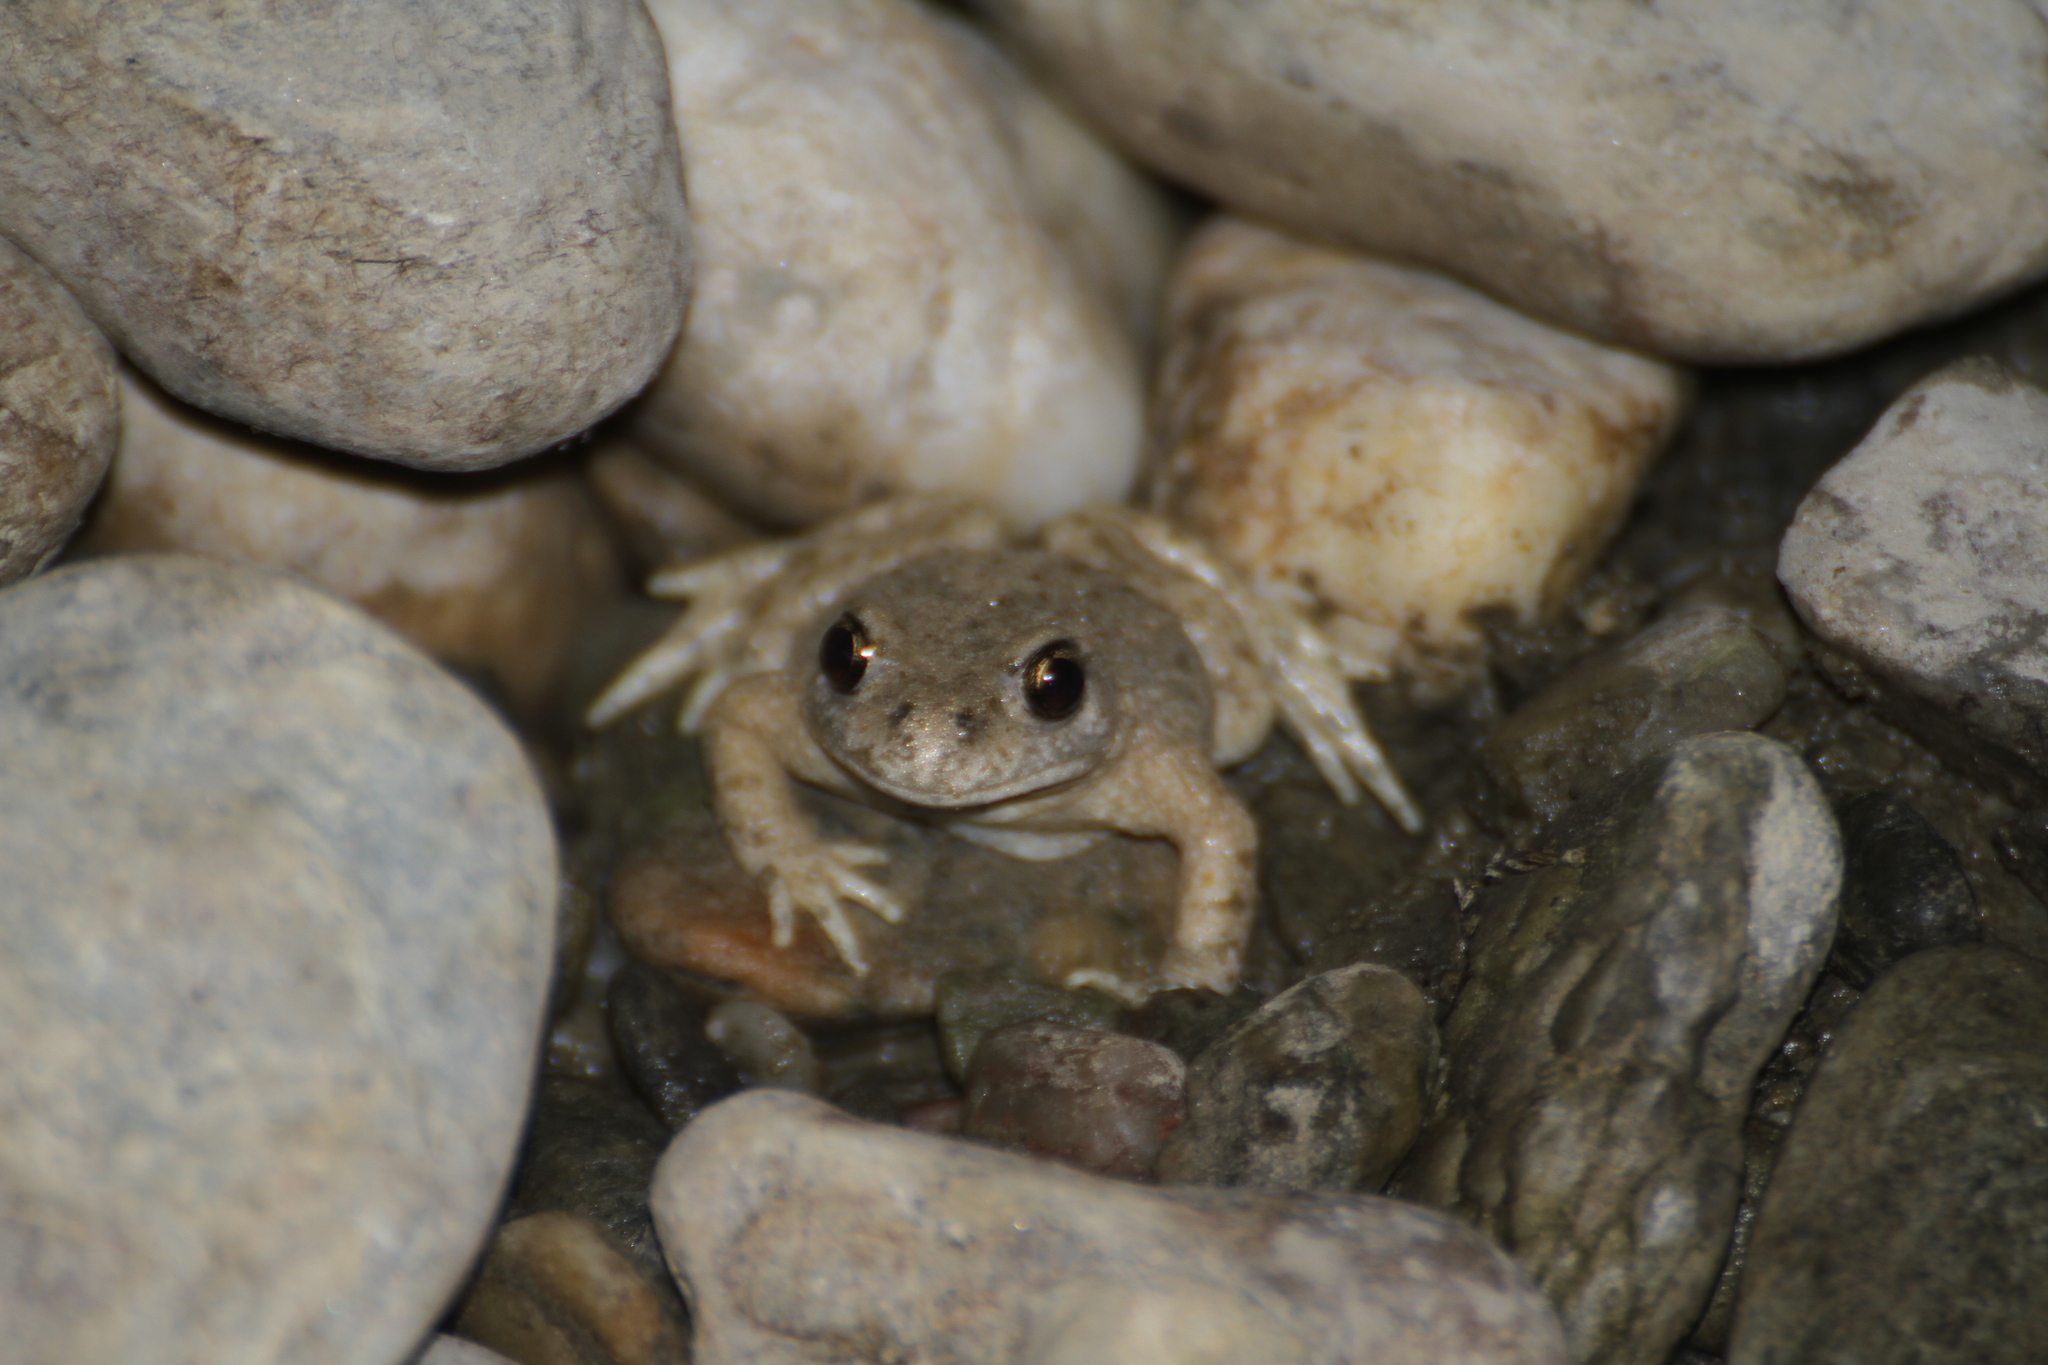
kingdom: Animalia
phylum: Chordata
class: Amphibia
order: Anura
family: Alytidae
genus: Alytes
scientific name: Alytes obstetricans
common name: Midwife toad
